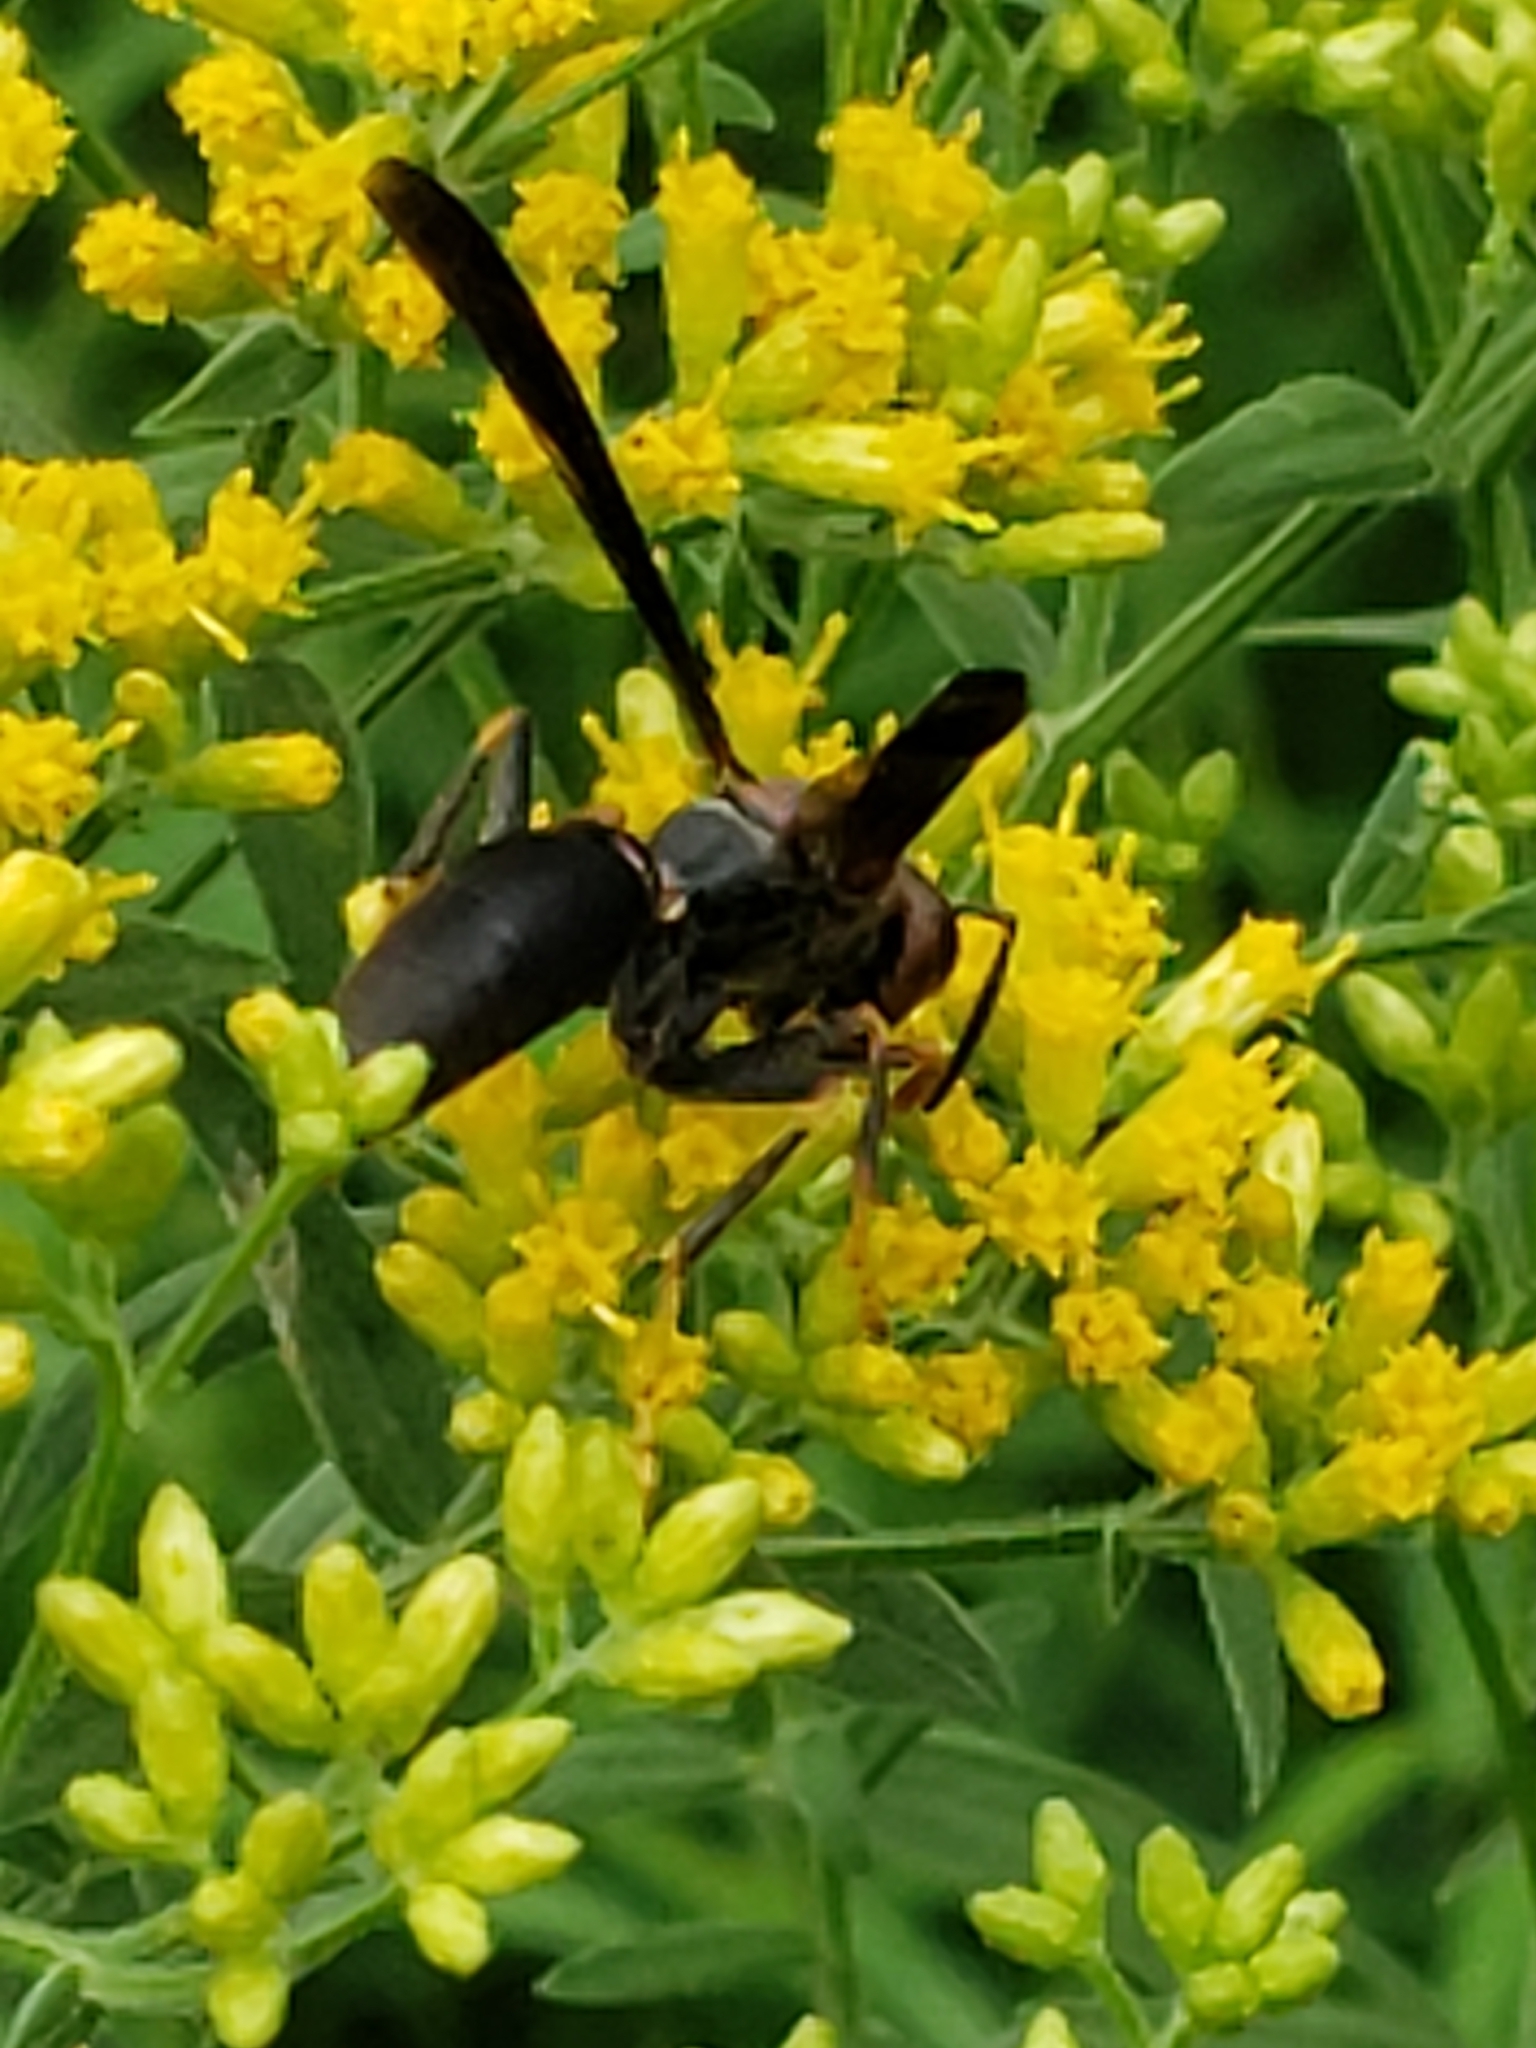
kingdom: Animalia
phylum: Arthropoda
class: Insecta
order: Hymenoptera
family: Eumenidae
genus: Polistes
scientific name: Polistes metricus
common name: Metric paper wasp
